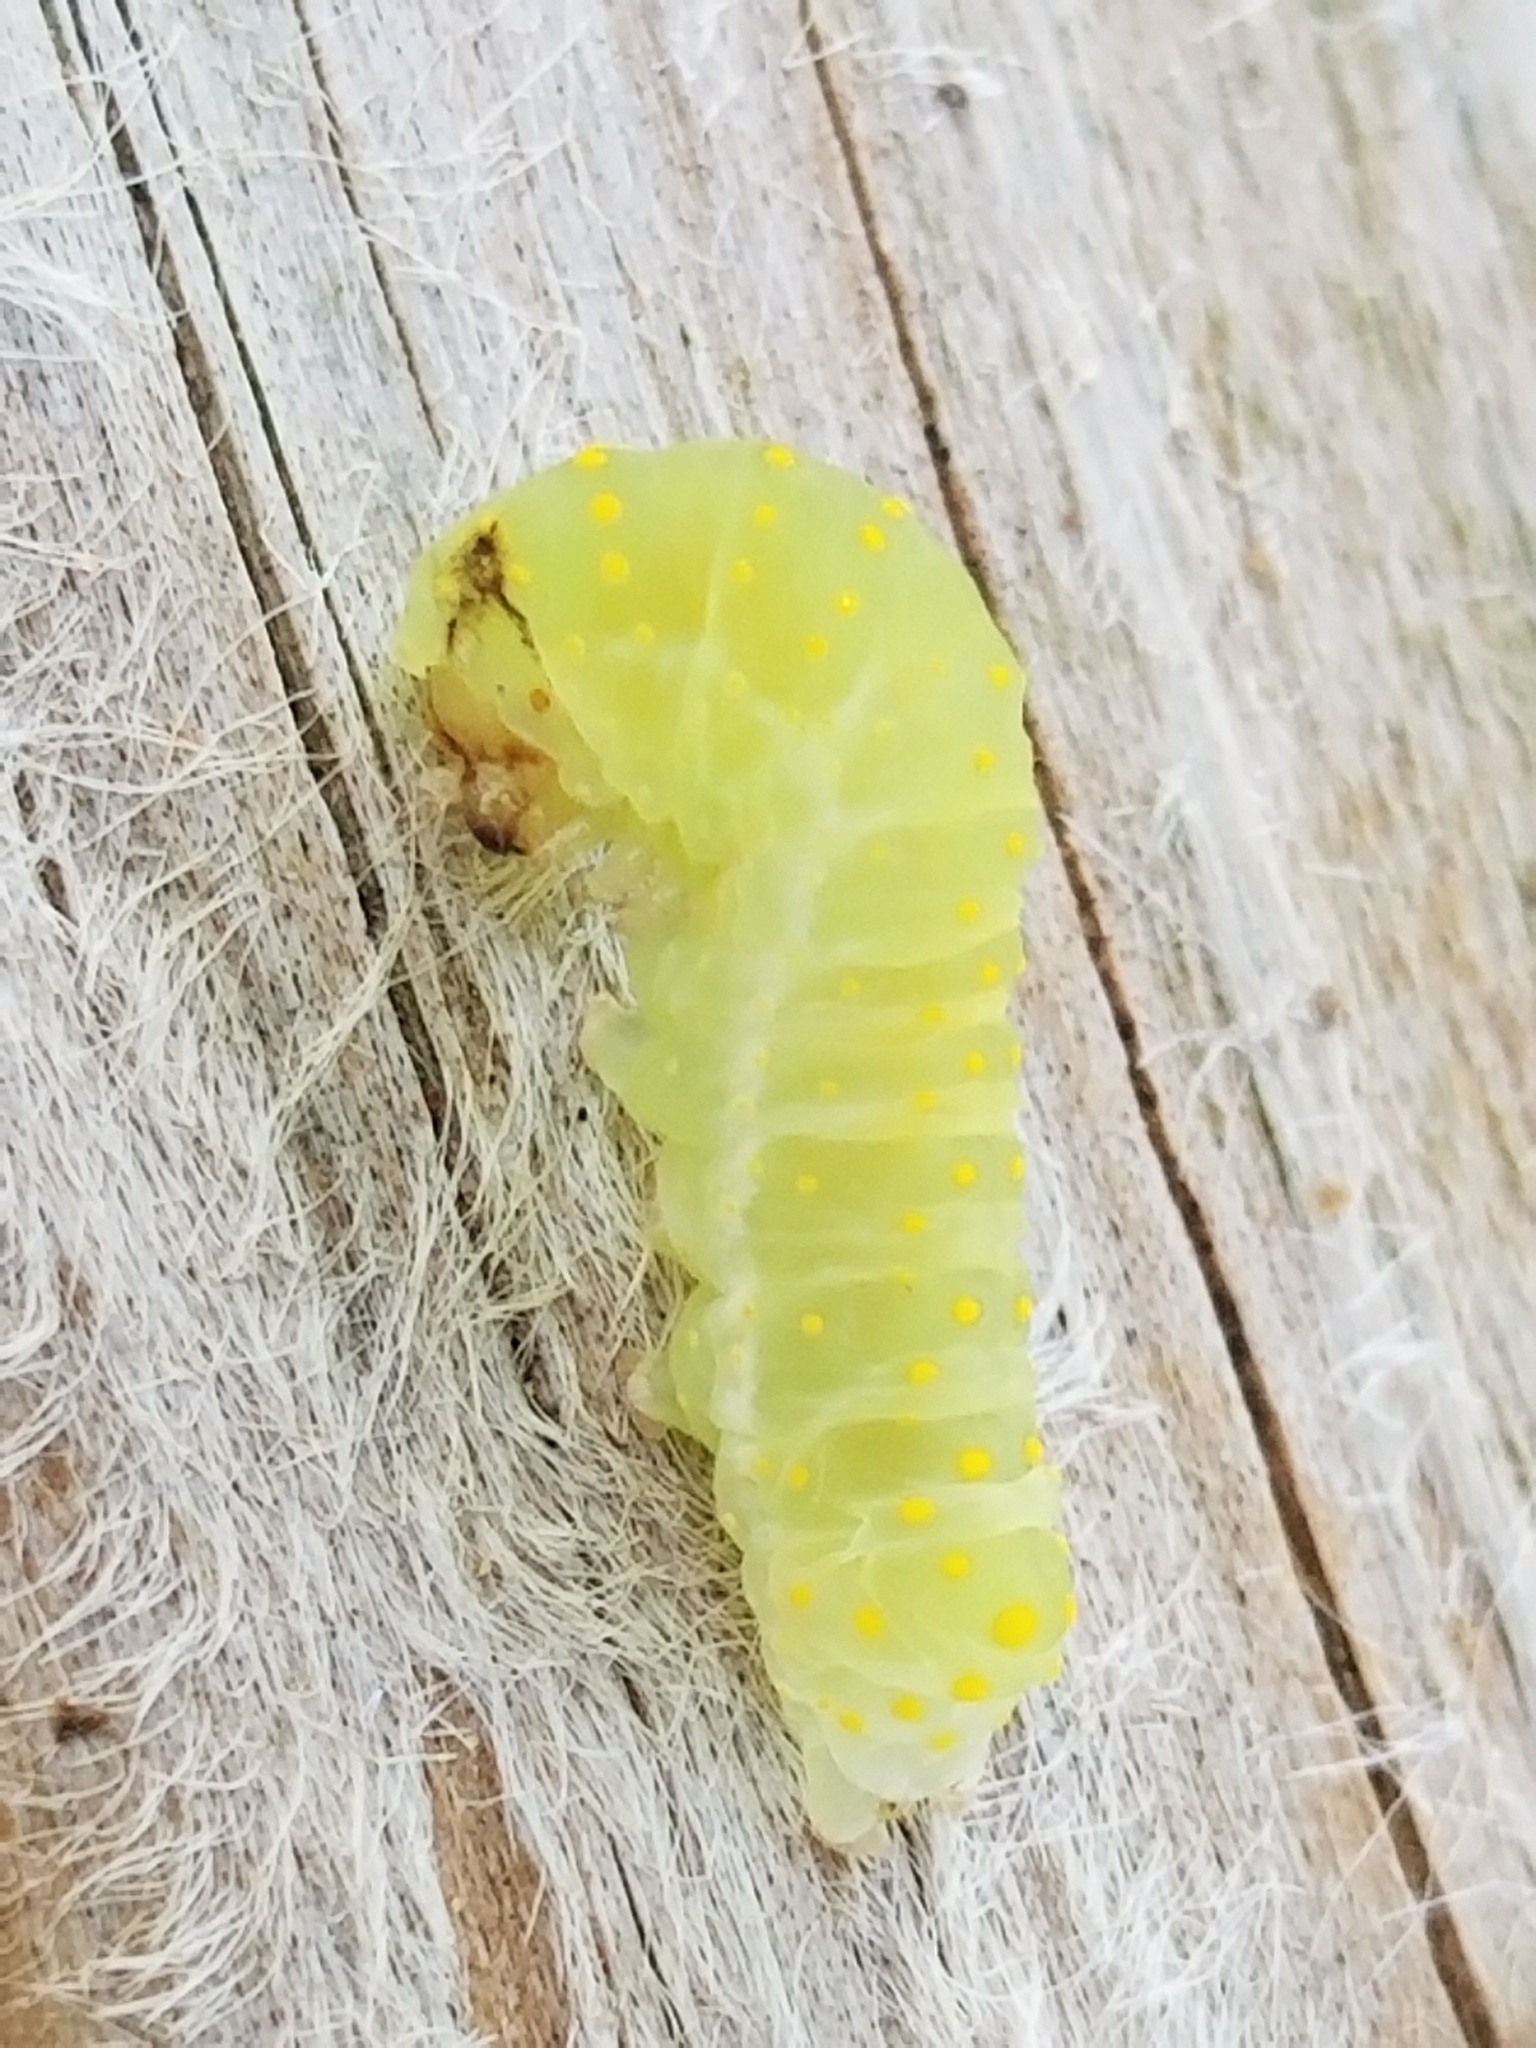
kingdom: Animalia
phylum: Arthropoda
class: Insecta
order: Lepidoptera
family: Noctuidae
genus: Phosphila
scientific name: Phosphila miselioides
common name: Spotted phosphila moth
